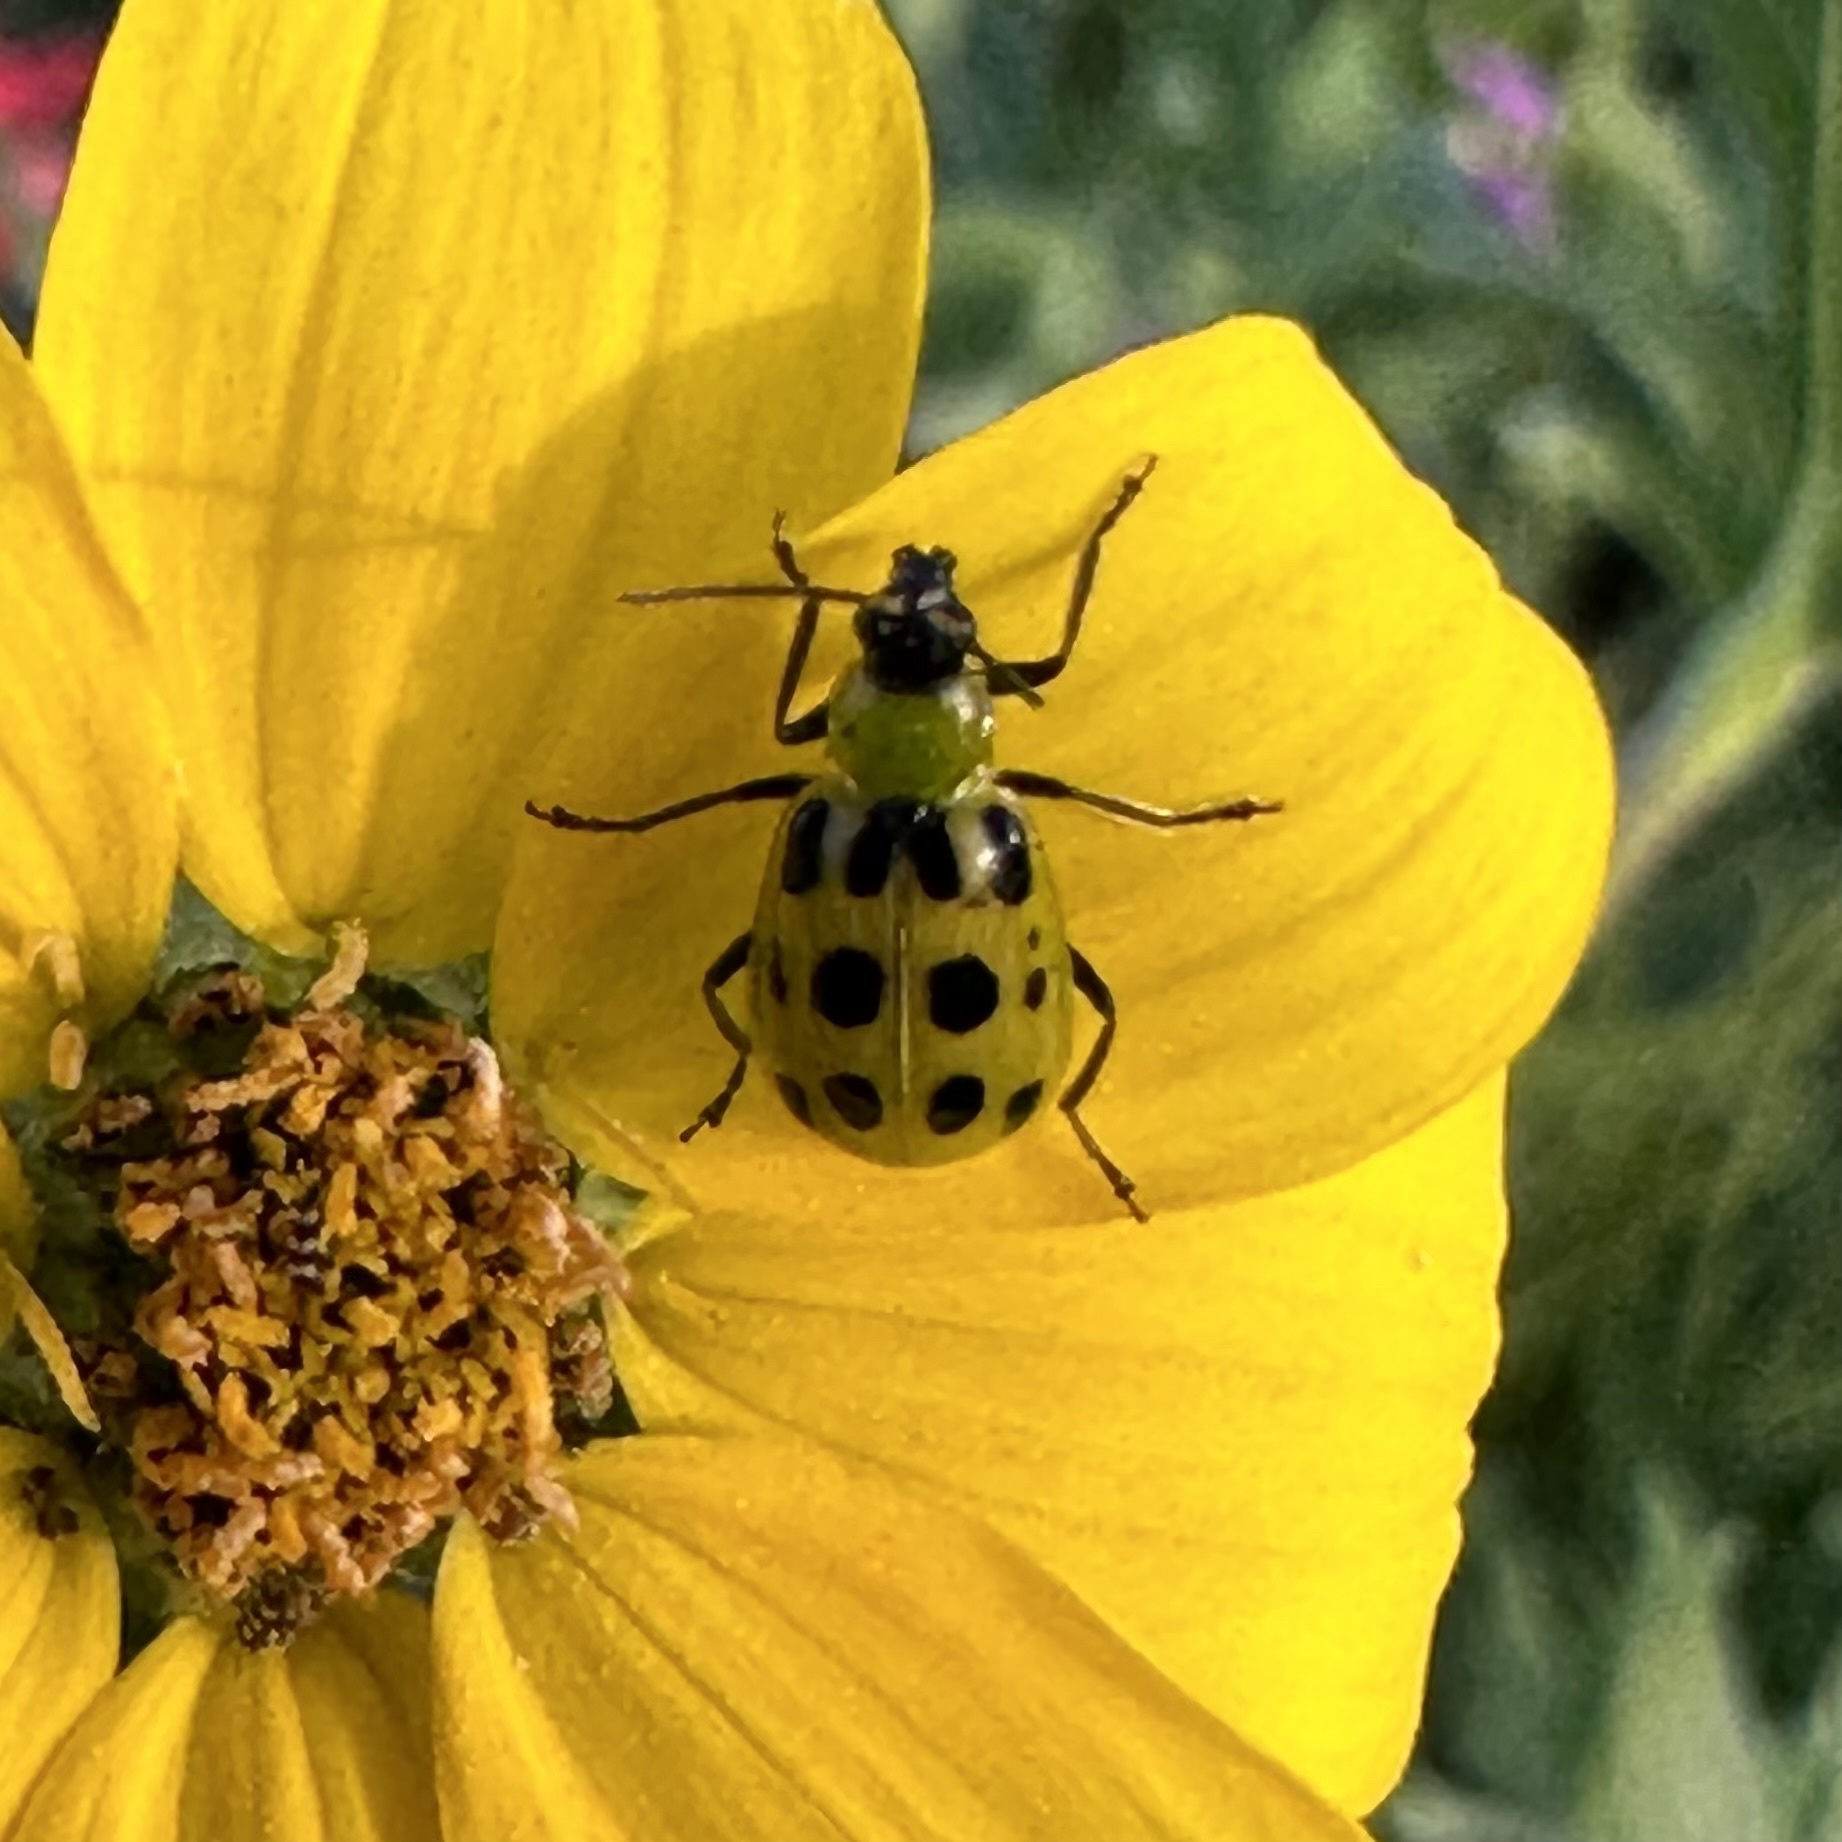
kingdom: Animalia
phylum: Arthropoda
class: Insecta
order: Coleoptera
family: Chrysomelidae
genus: Diabrotica
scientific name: Diabrotica undecimpunctata
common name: Spotted cucumber beetle
